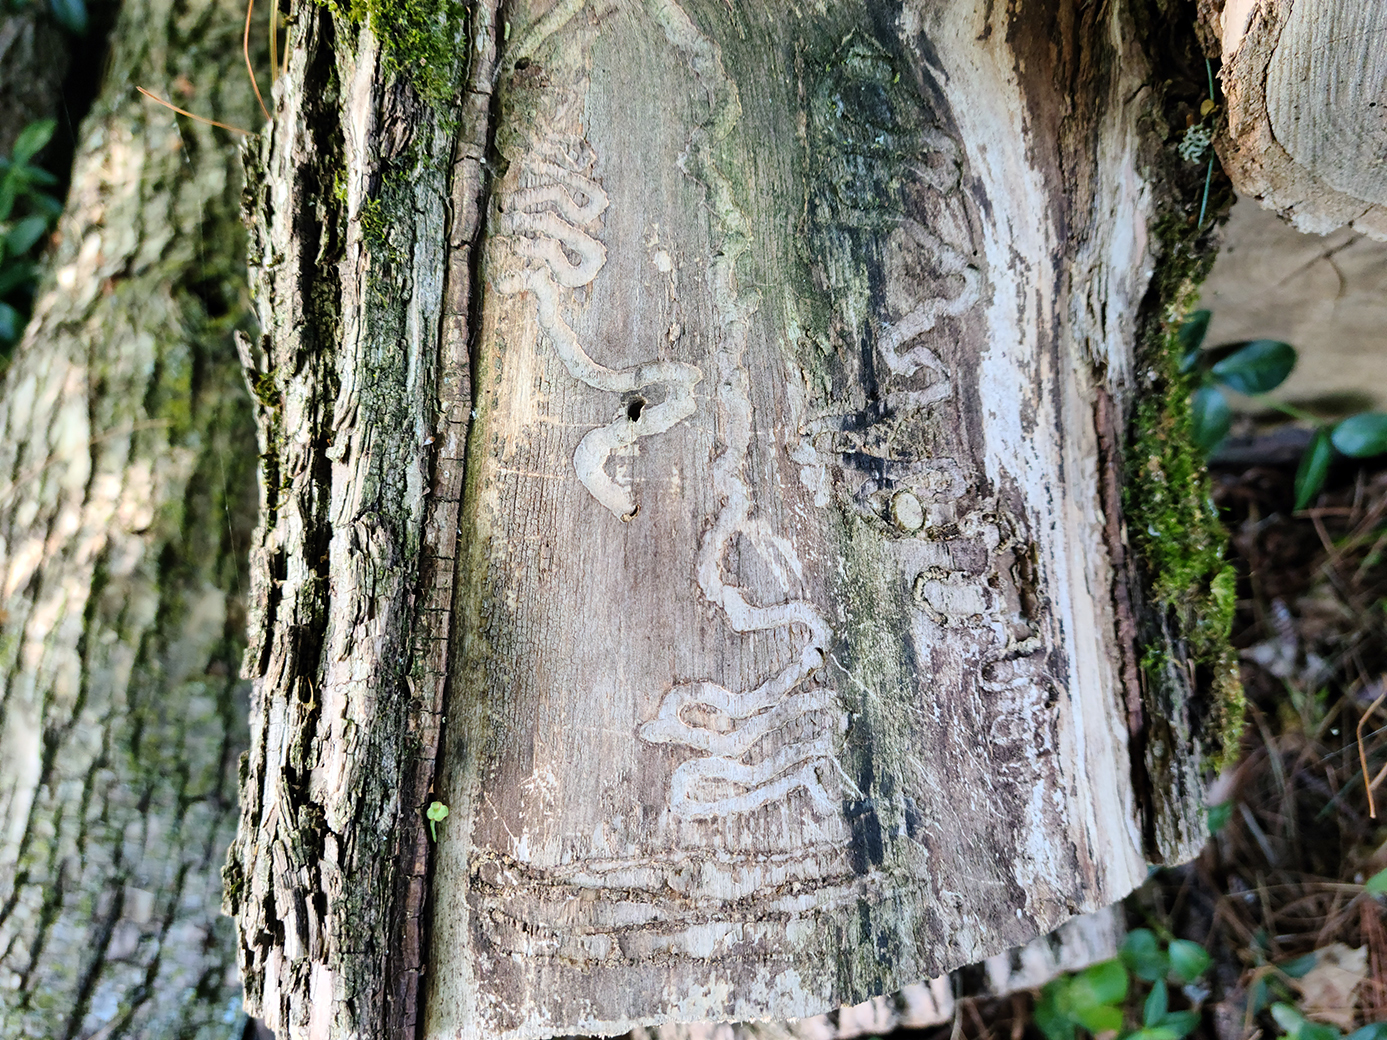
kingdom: Animalia
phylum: Arthropoda
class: Insecta
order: Coleoptera
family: Buprestidae
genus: Agrilus
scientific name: Agrilus planipennis
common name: Emerald ash borer
